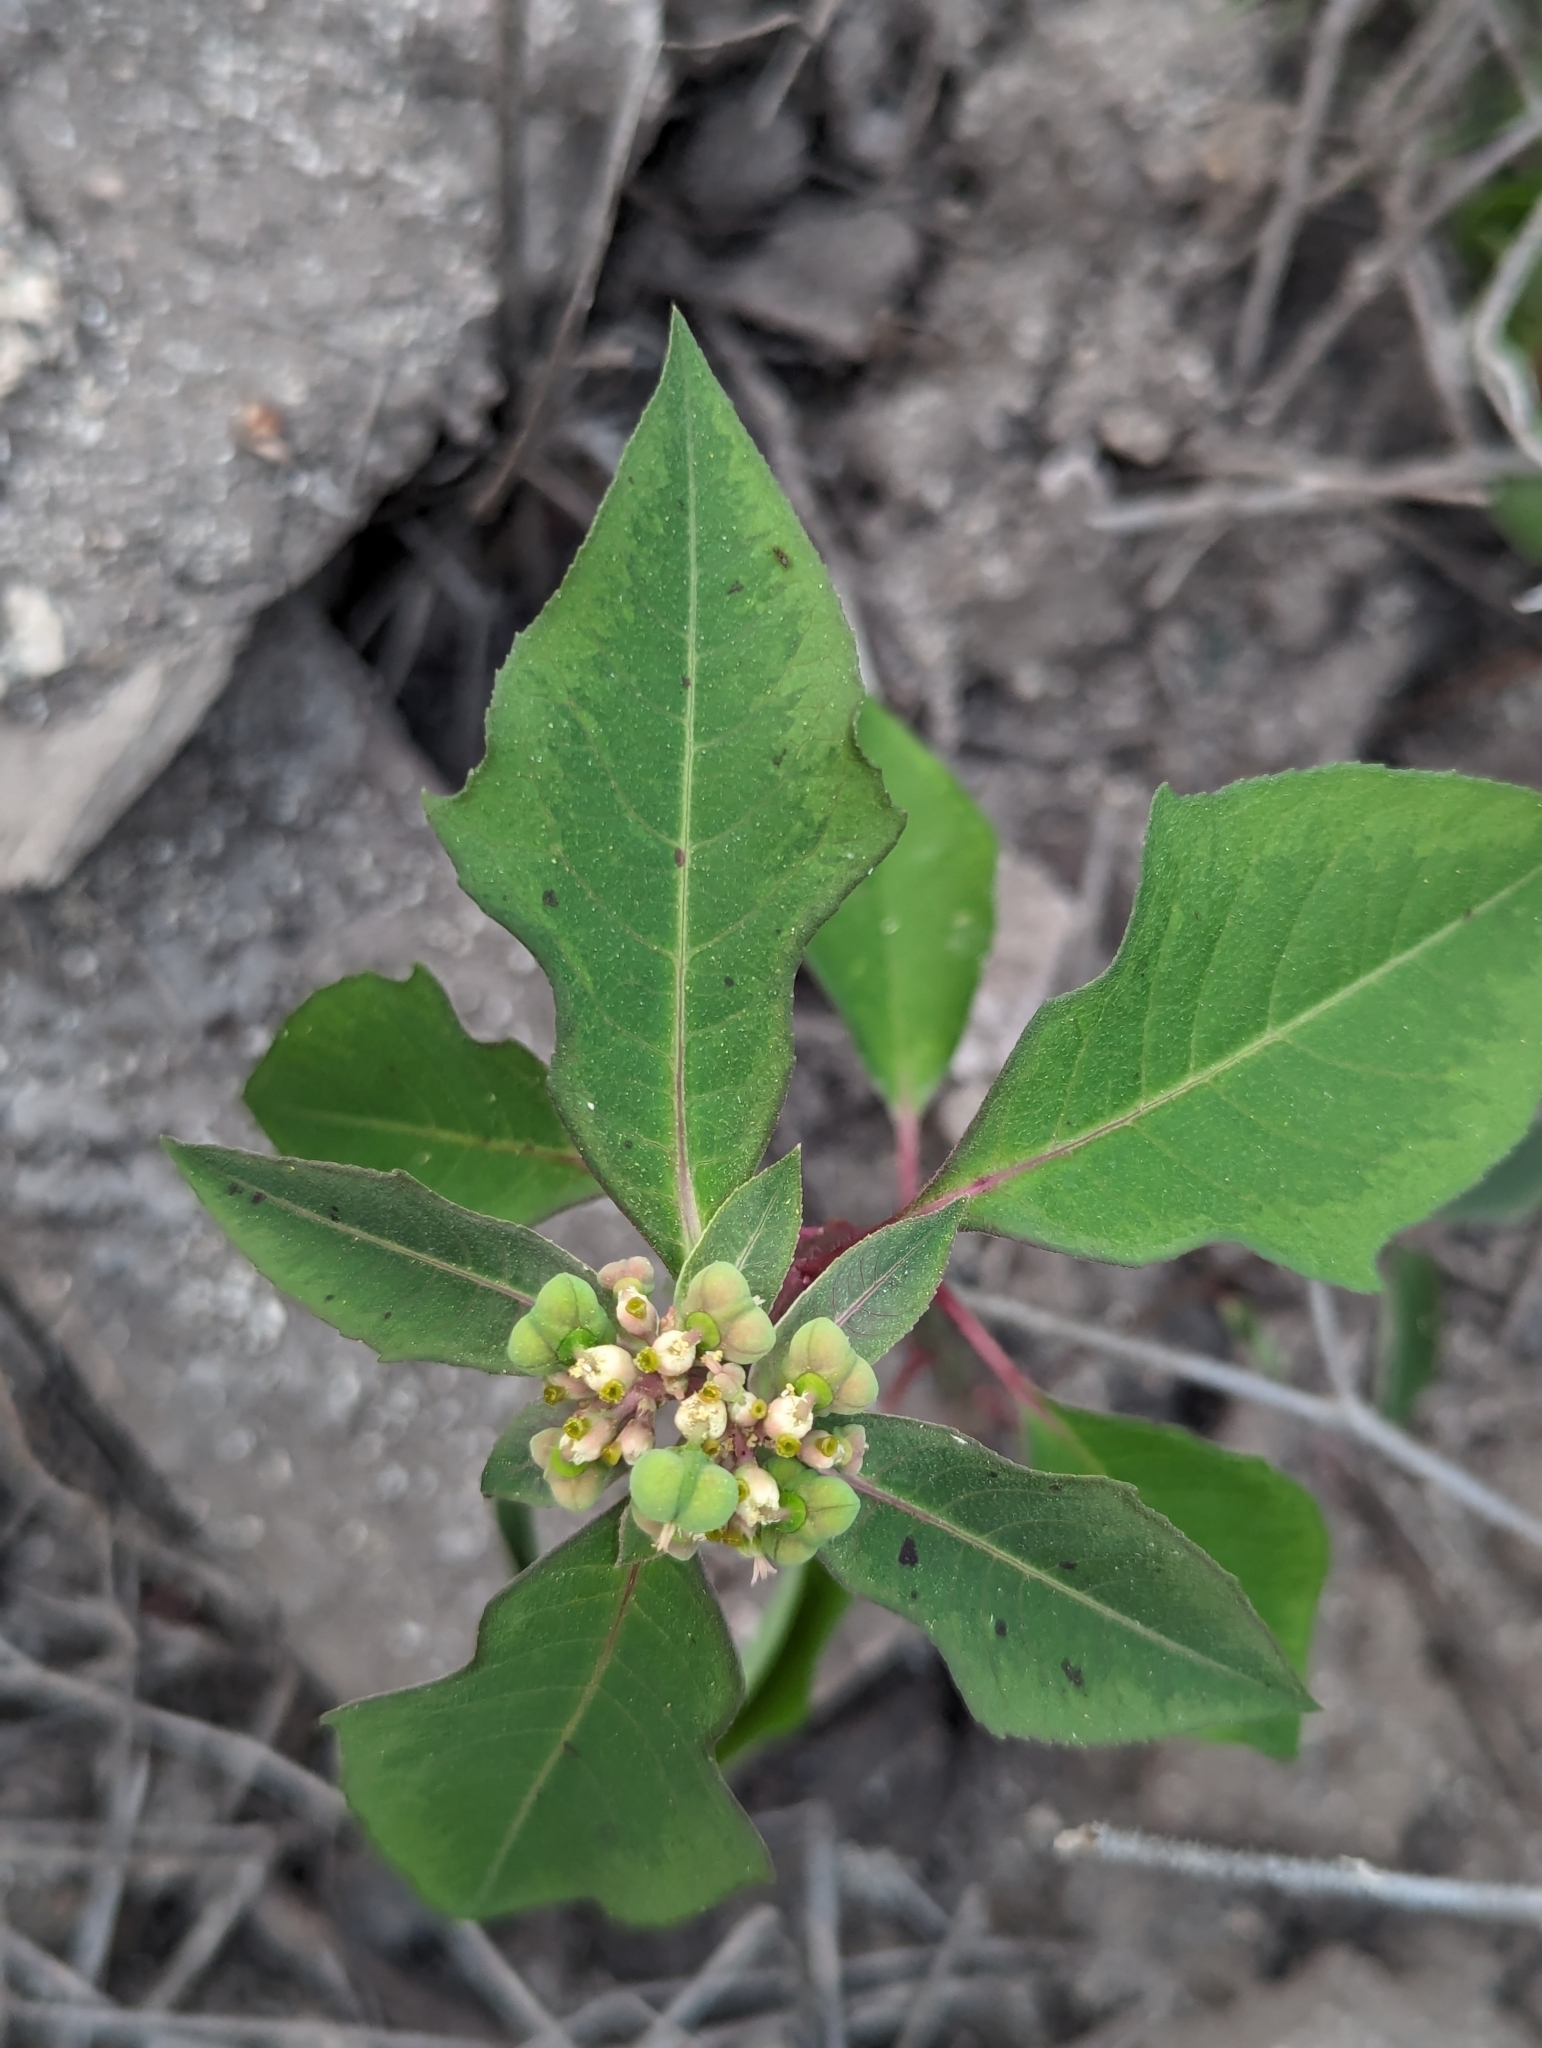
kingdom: Plantae
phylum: Tracheophyta
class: Magnoliopsida
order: Malpighiales
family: Euphorbiaceae
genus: Euphorbia
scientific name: Euphorbia heterophylla
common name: Mexican fireplant
